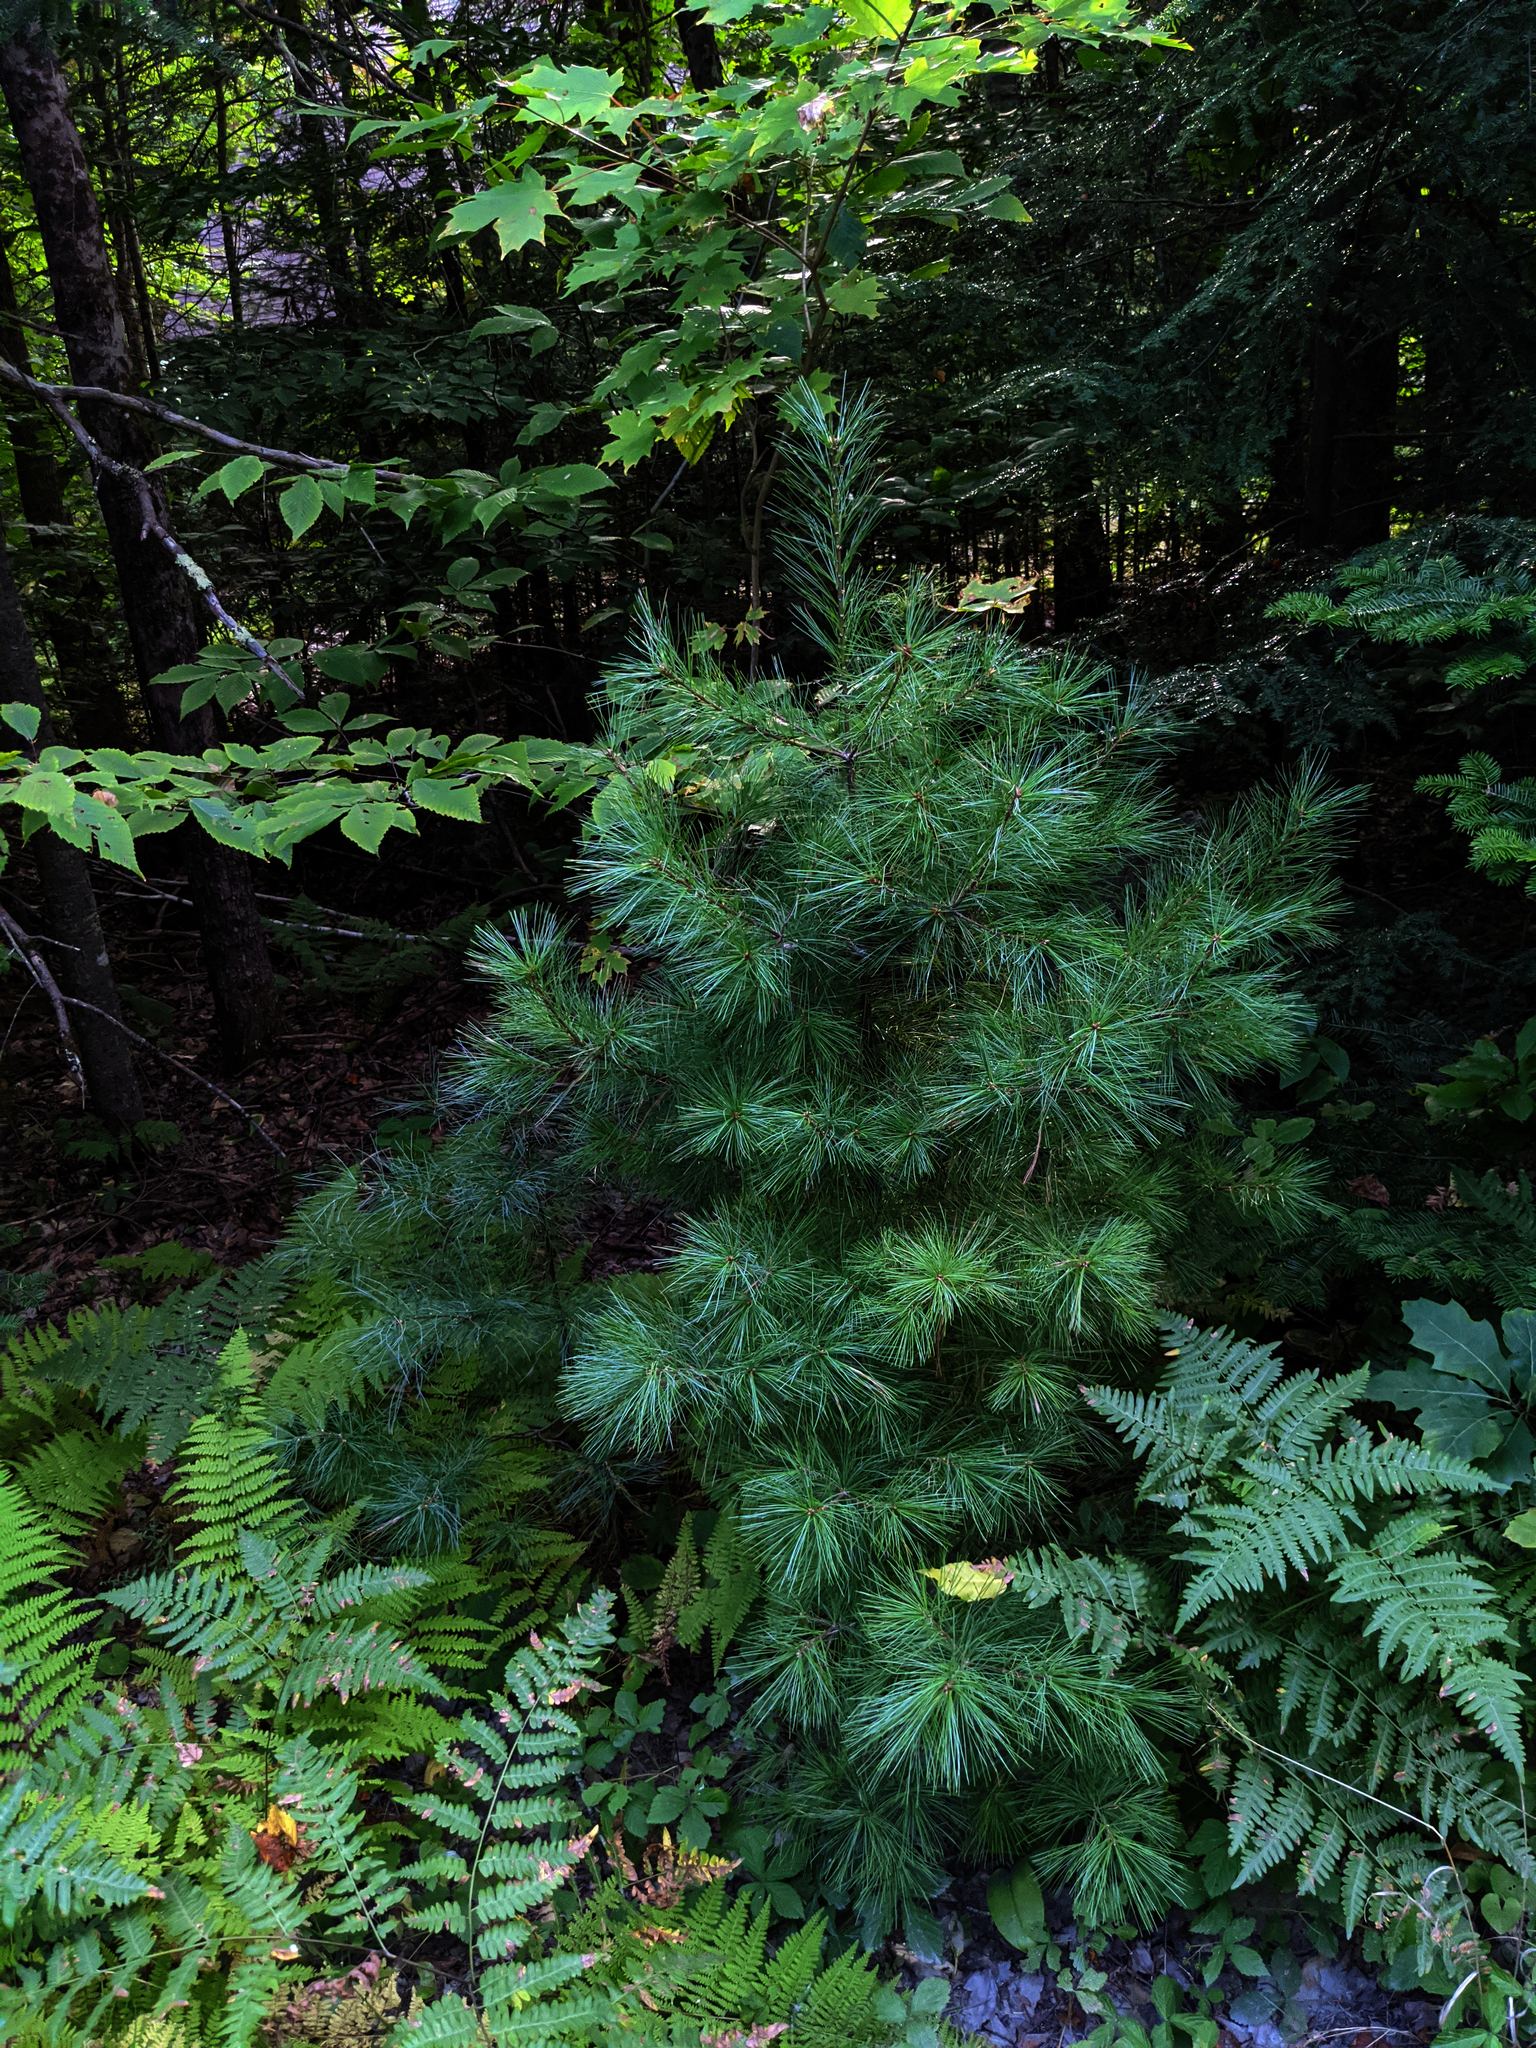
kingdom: Plantae
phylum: Tracheophyta
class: Pinopsida
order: Pinales
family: Pinaceae
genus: Pinus
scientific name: Pinus strobus
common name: Weymouth pine
